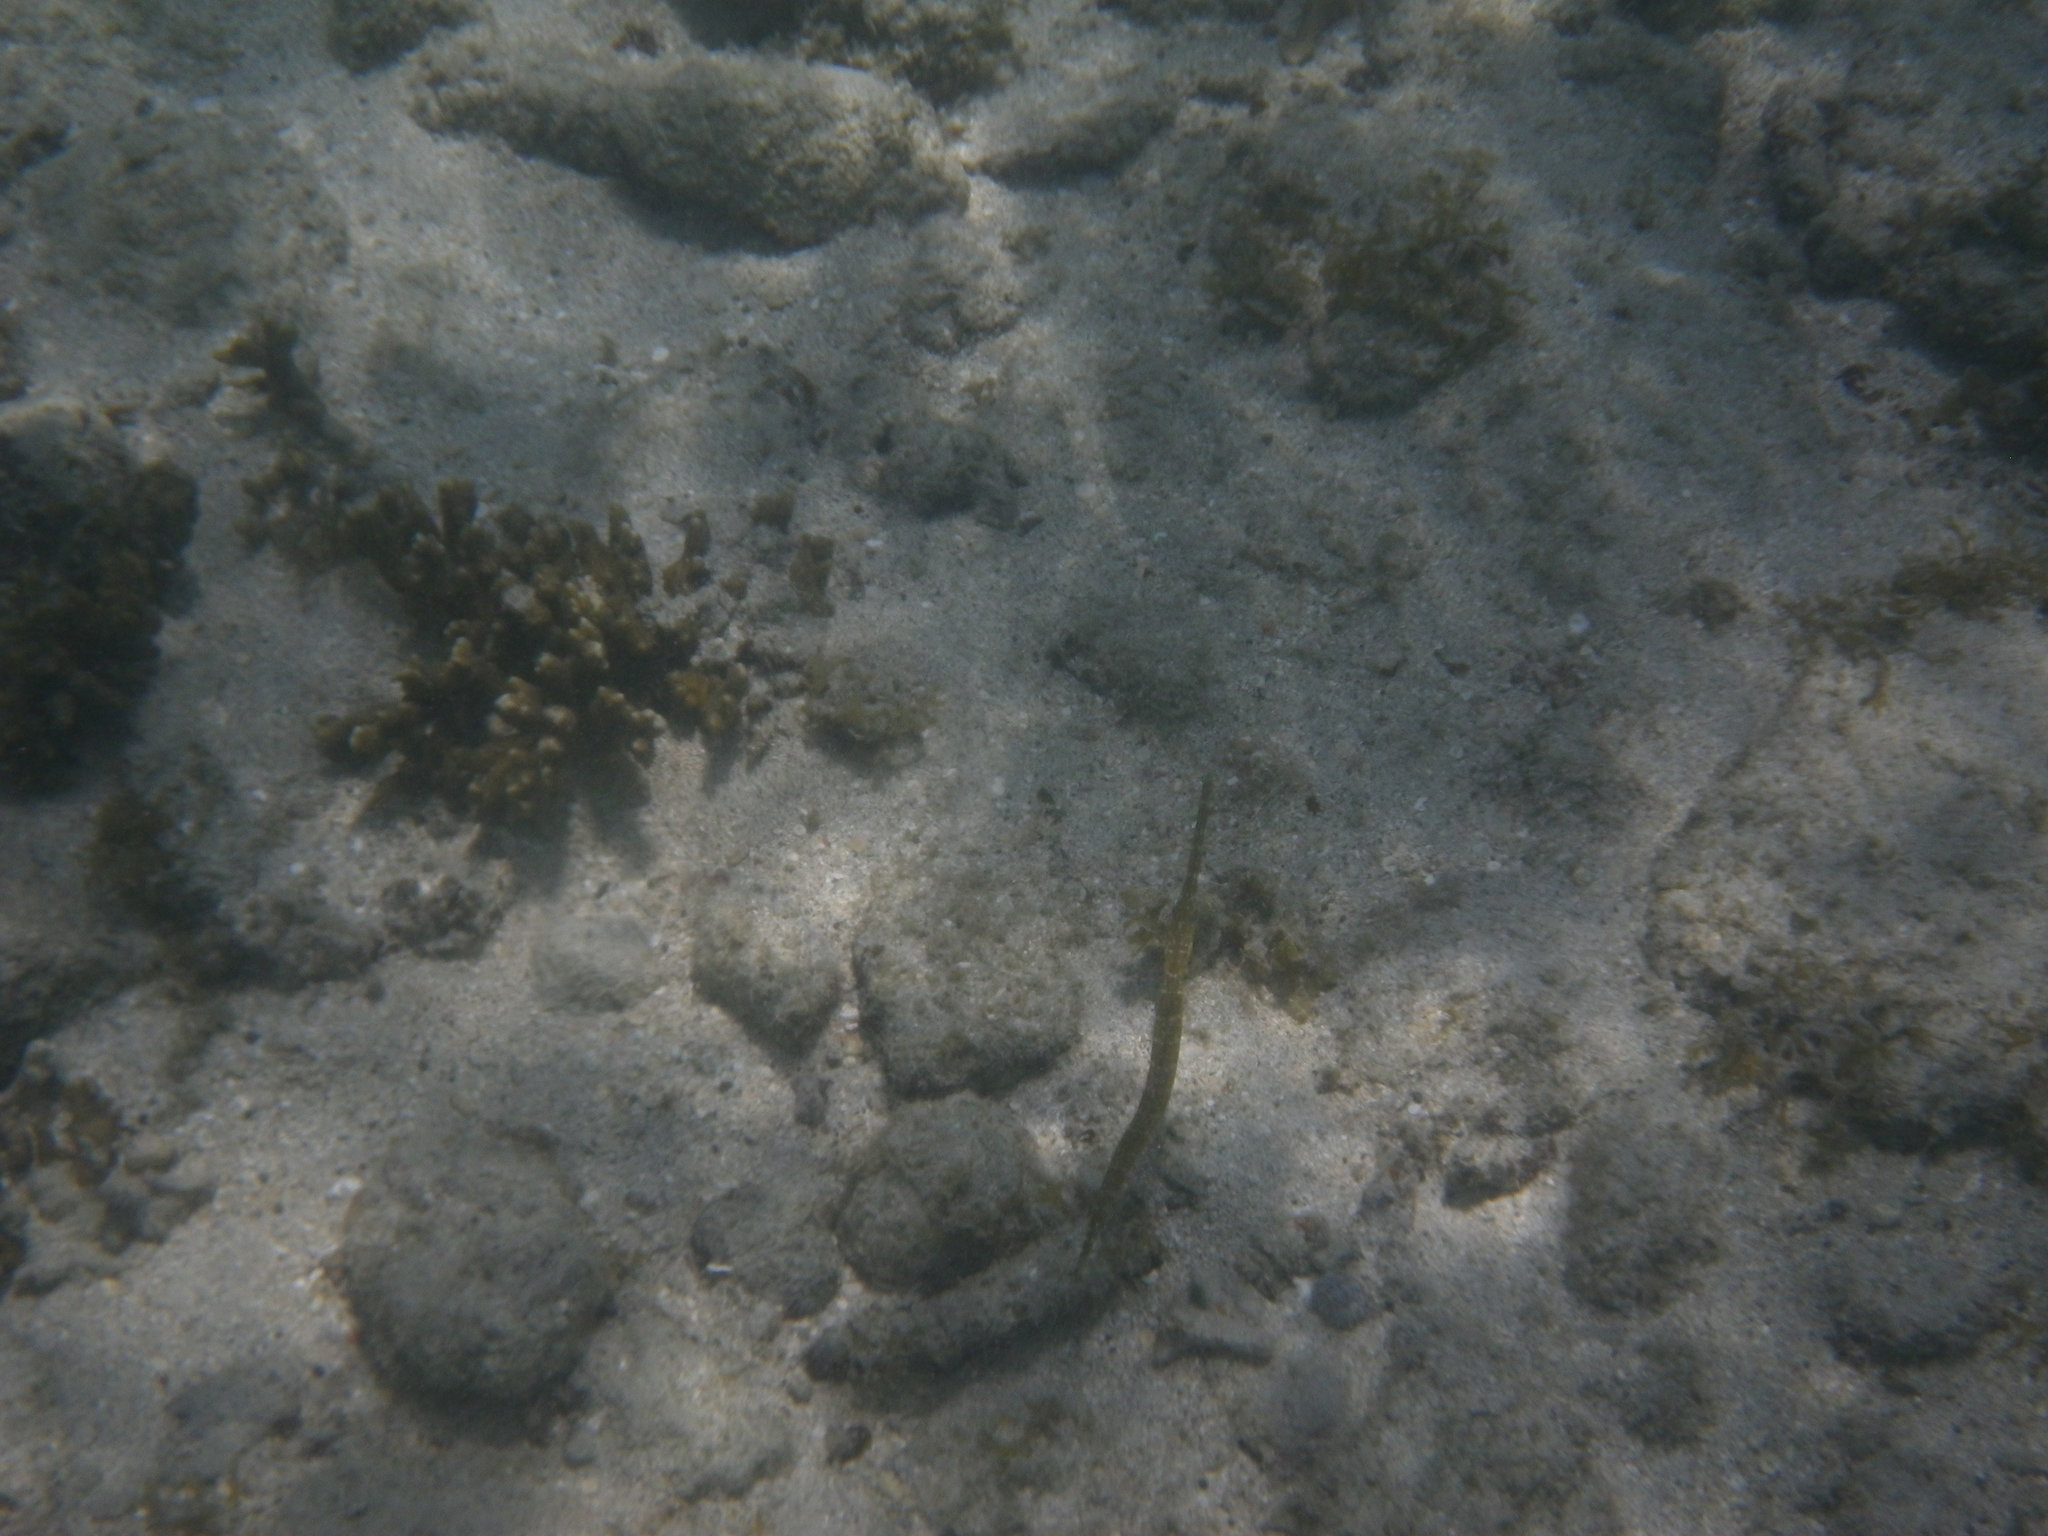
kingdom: Animalia
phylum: Chordata
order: Syngnathiformes
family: Aulostomidae
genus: Aulostomus
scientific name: Aulostomus chinensis
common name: Chinese trumpetfish
